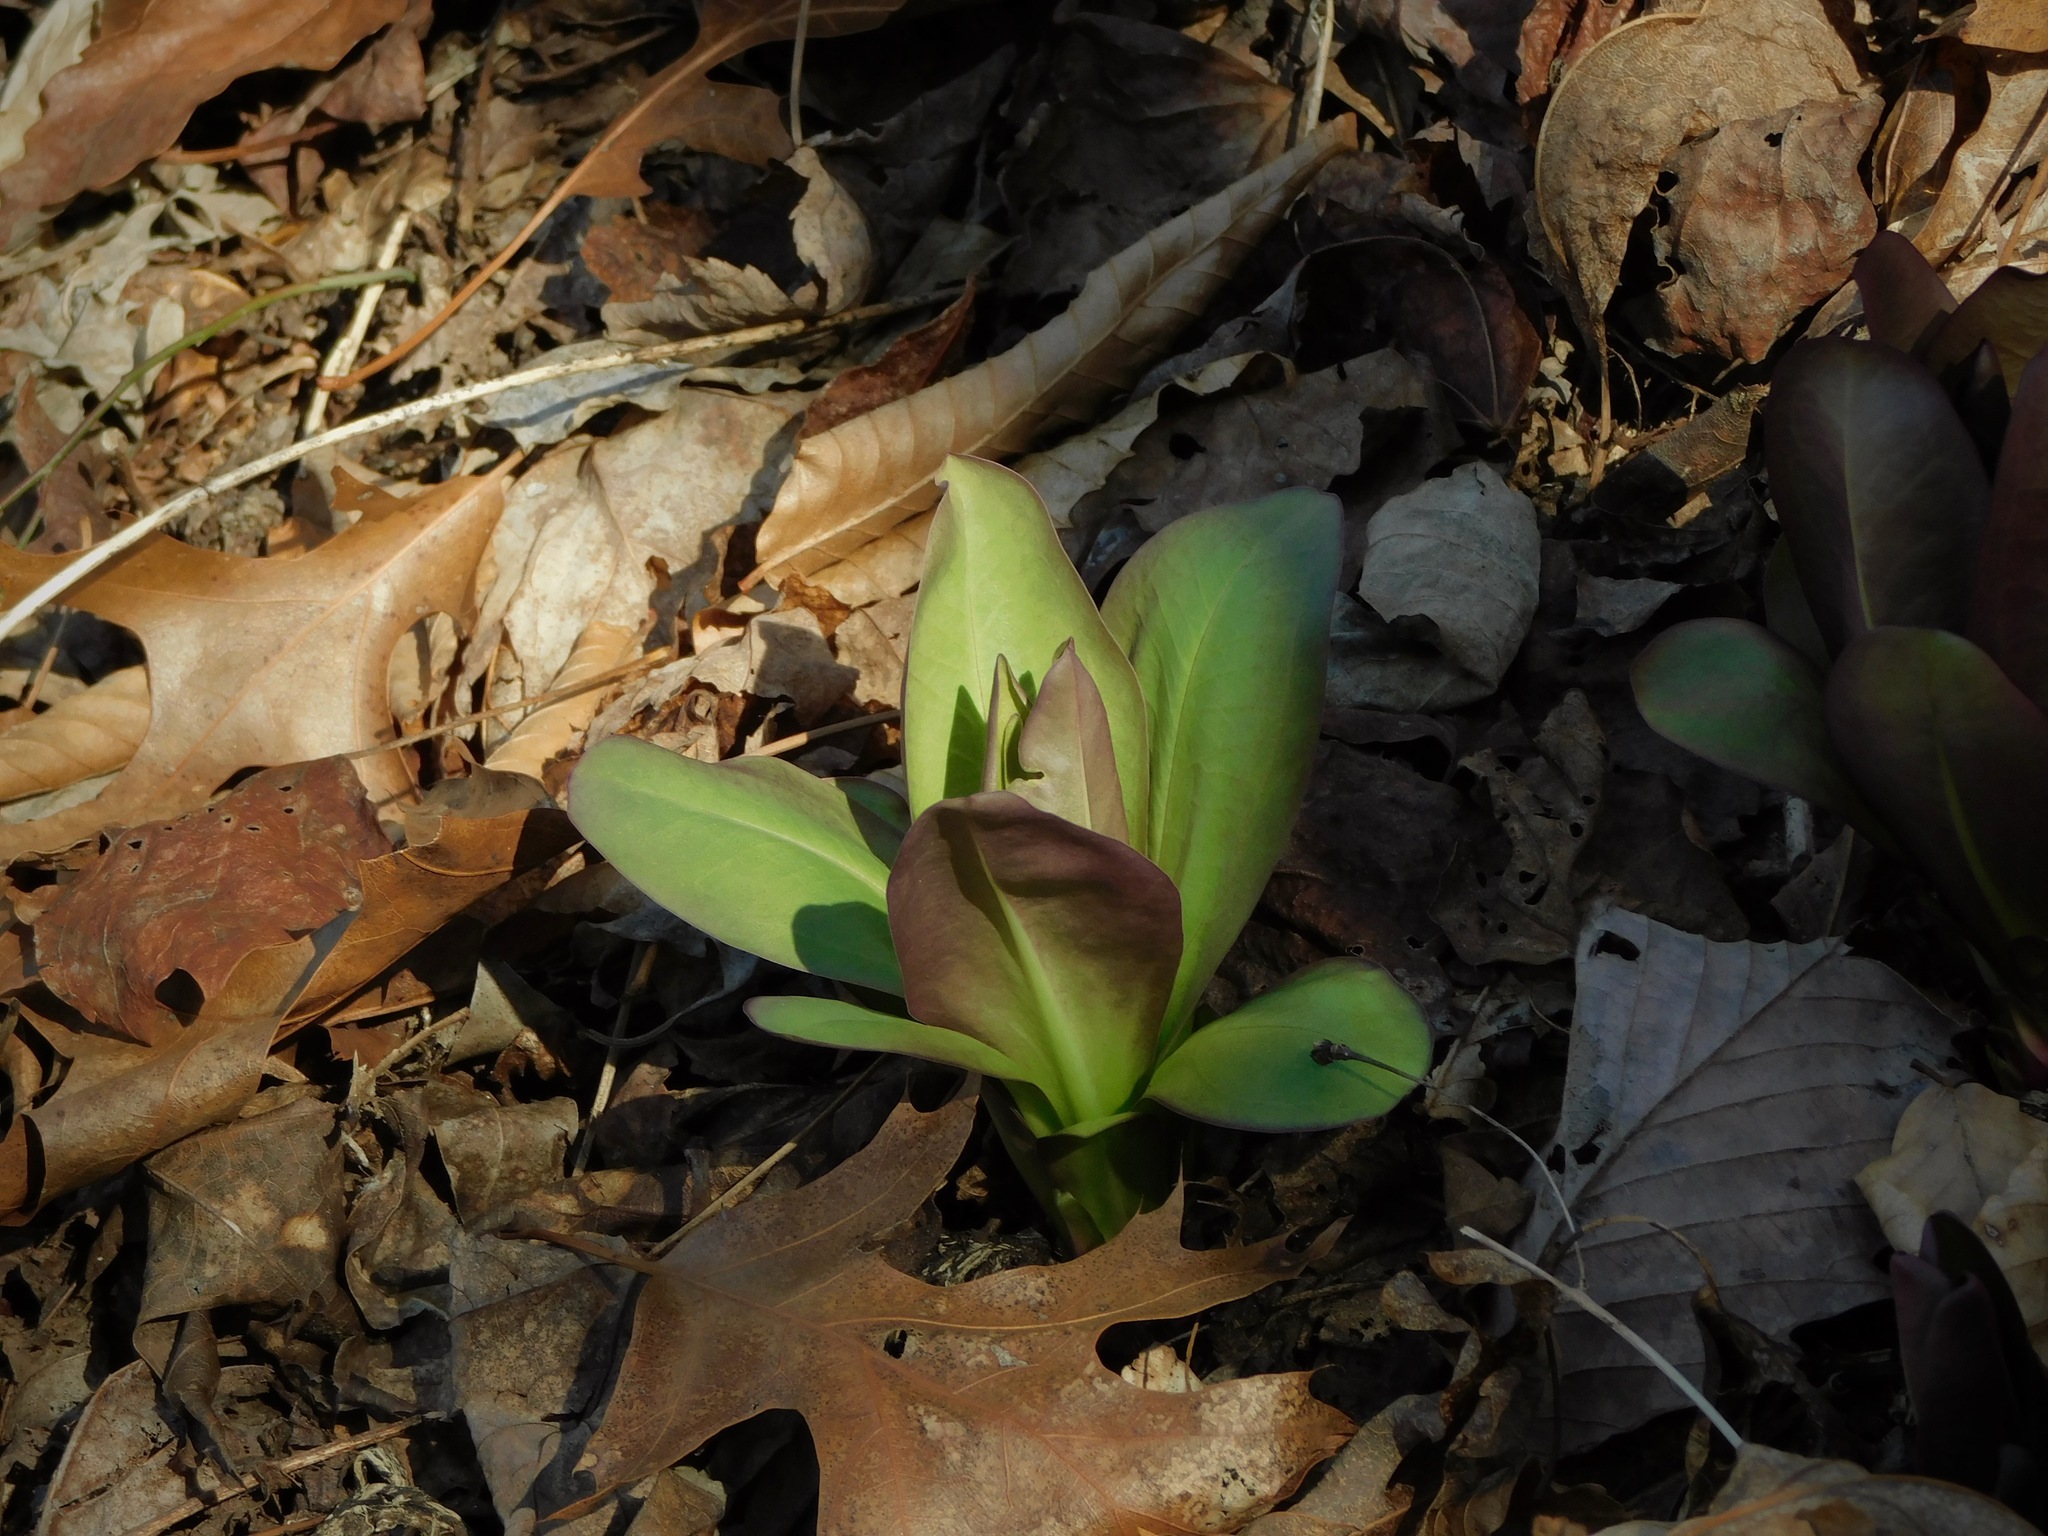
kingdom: Plantae
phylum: Tracheophyta
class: Magnoliopsida
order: Gentianales
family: Gentianaceae
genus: Frasera
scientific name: Frasera caroliniensis
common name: American columbo
